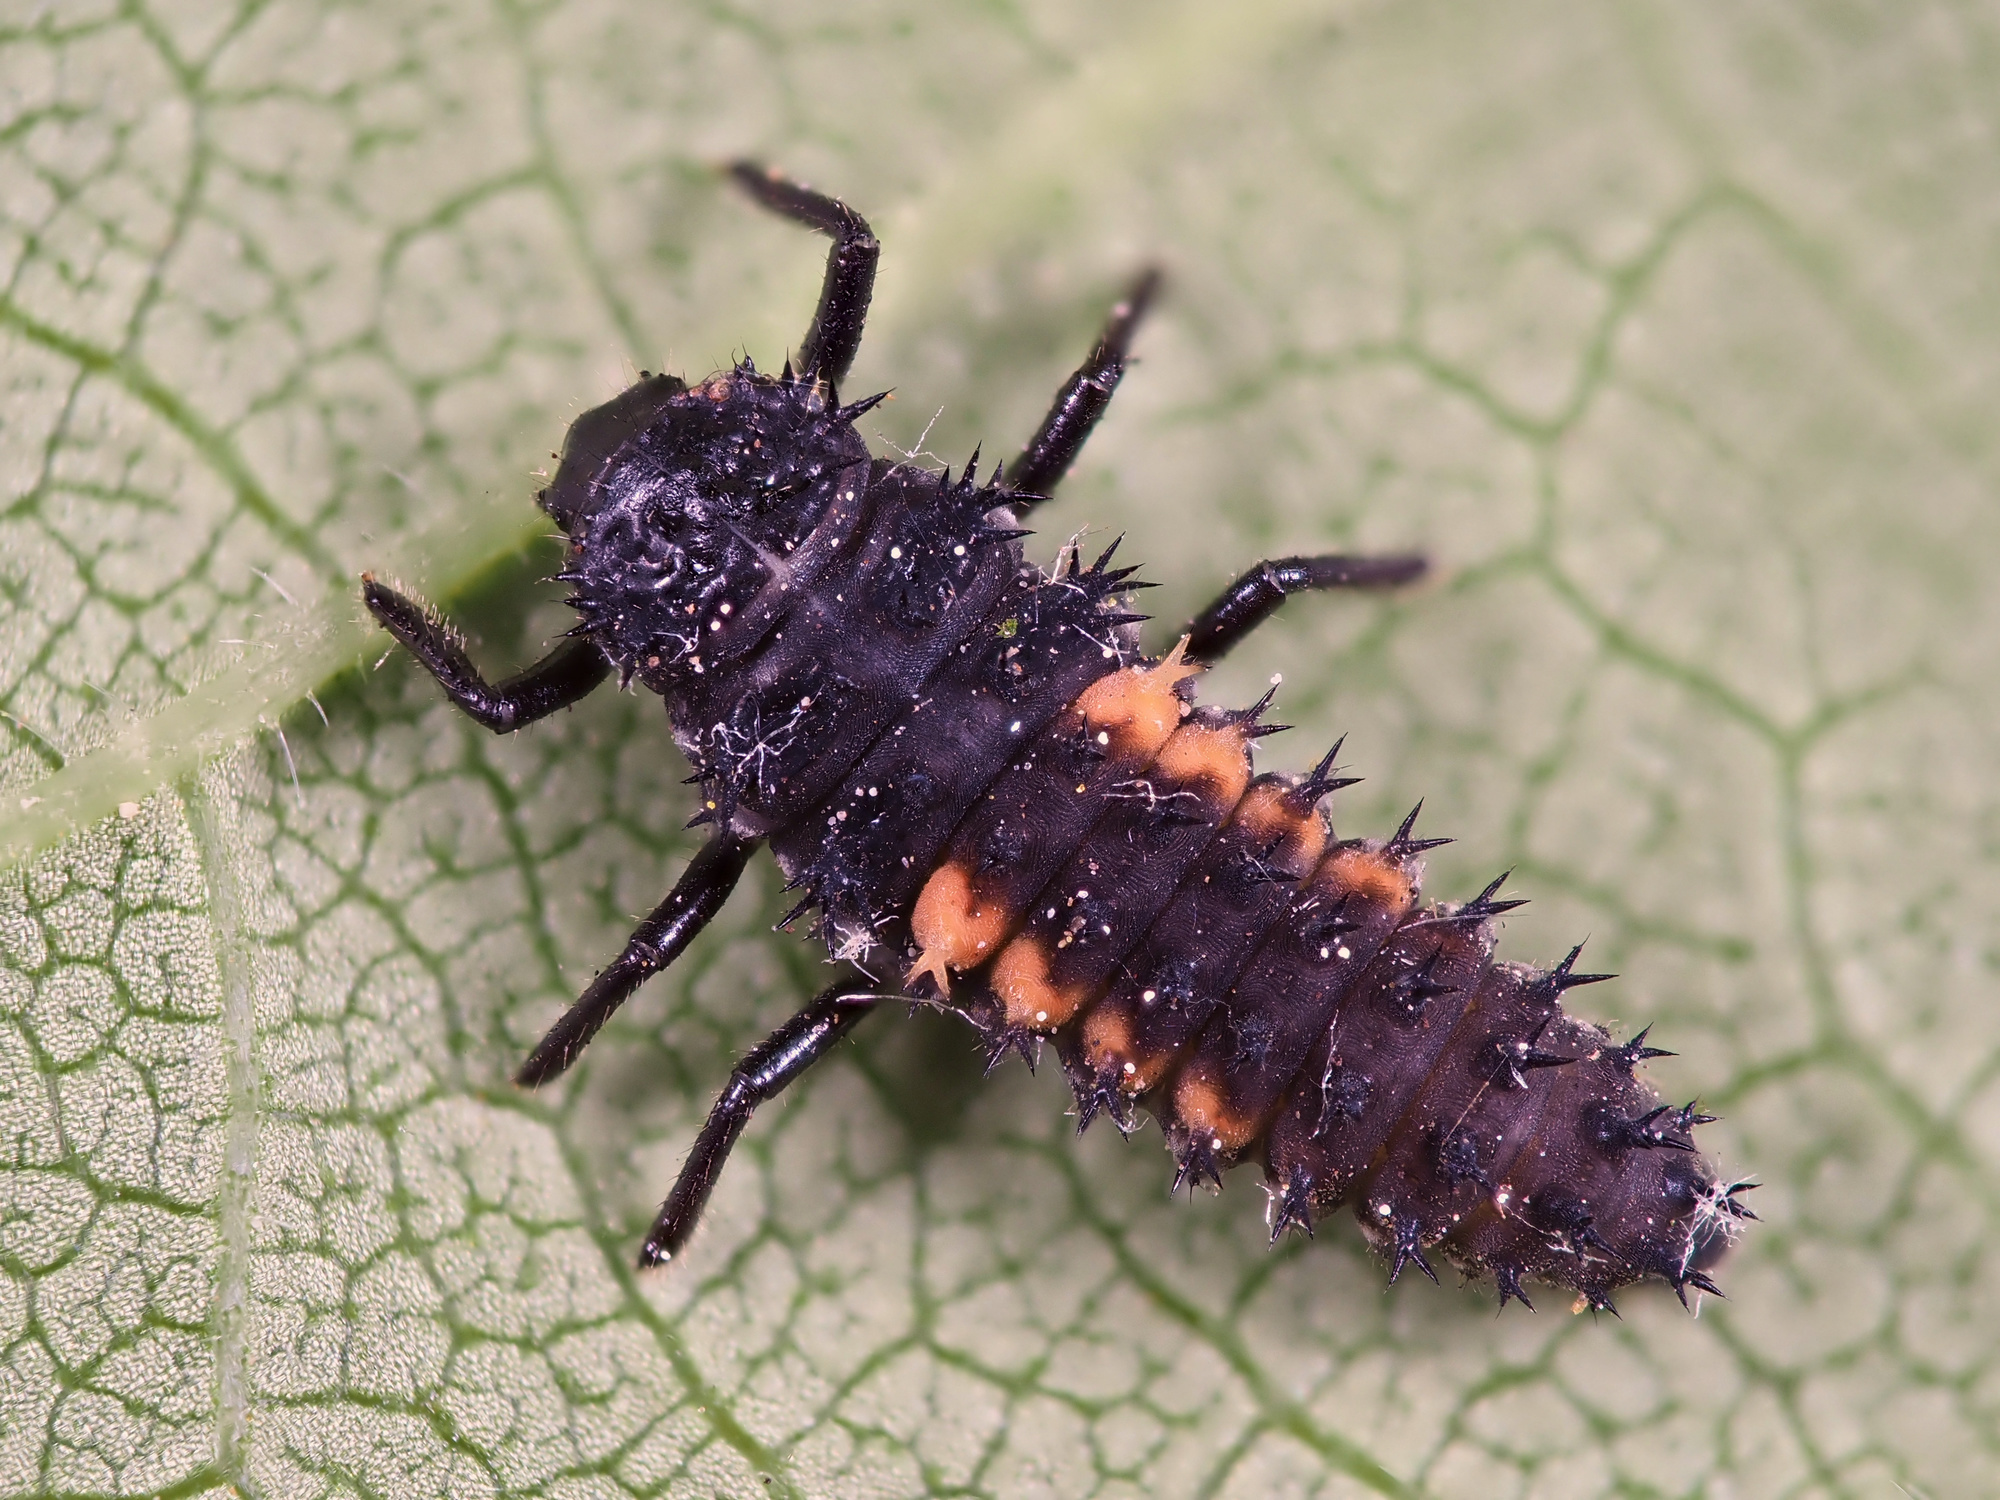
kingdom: Animalia
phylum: Arthropoda
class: Insecta
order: Coleoptera
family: Coccinellidae
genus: Harmonia
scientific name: Harmonia axyridis
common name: Harlequin ladybird
